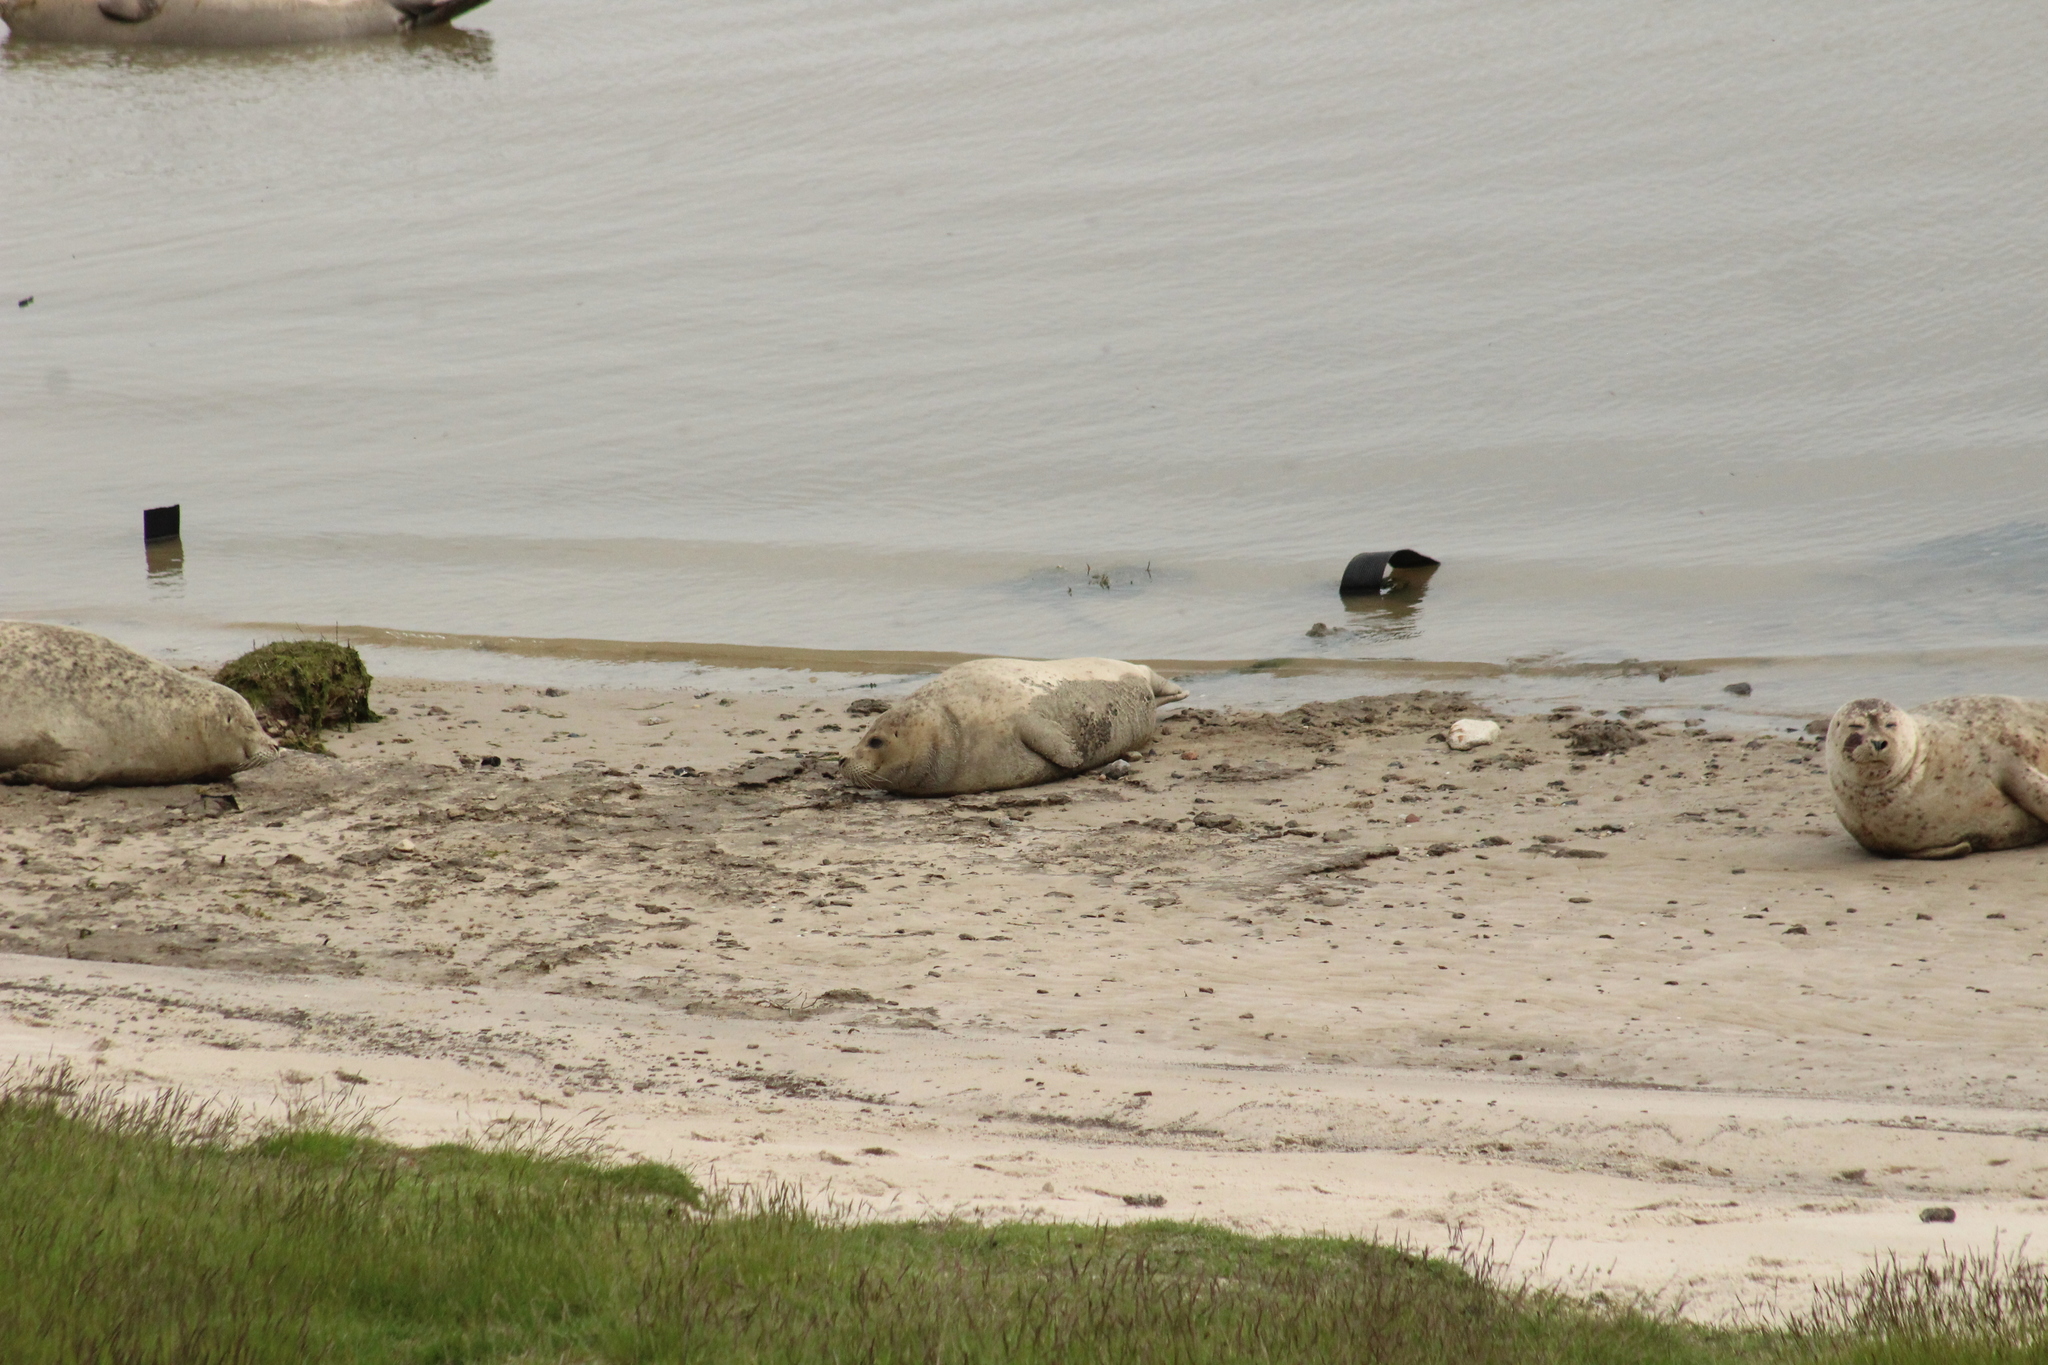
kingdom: Animalia
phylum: Chordata
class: Mammalia
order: Carnivora
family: Phocidae
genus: Phoca
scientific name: Phoca vitulina
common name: Harbor seal
